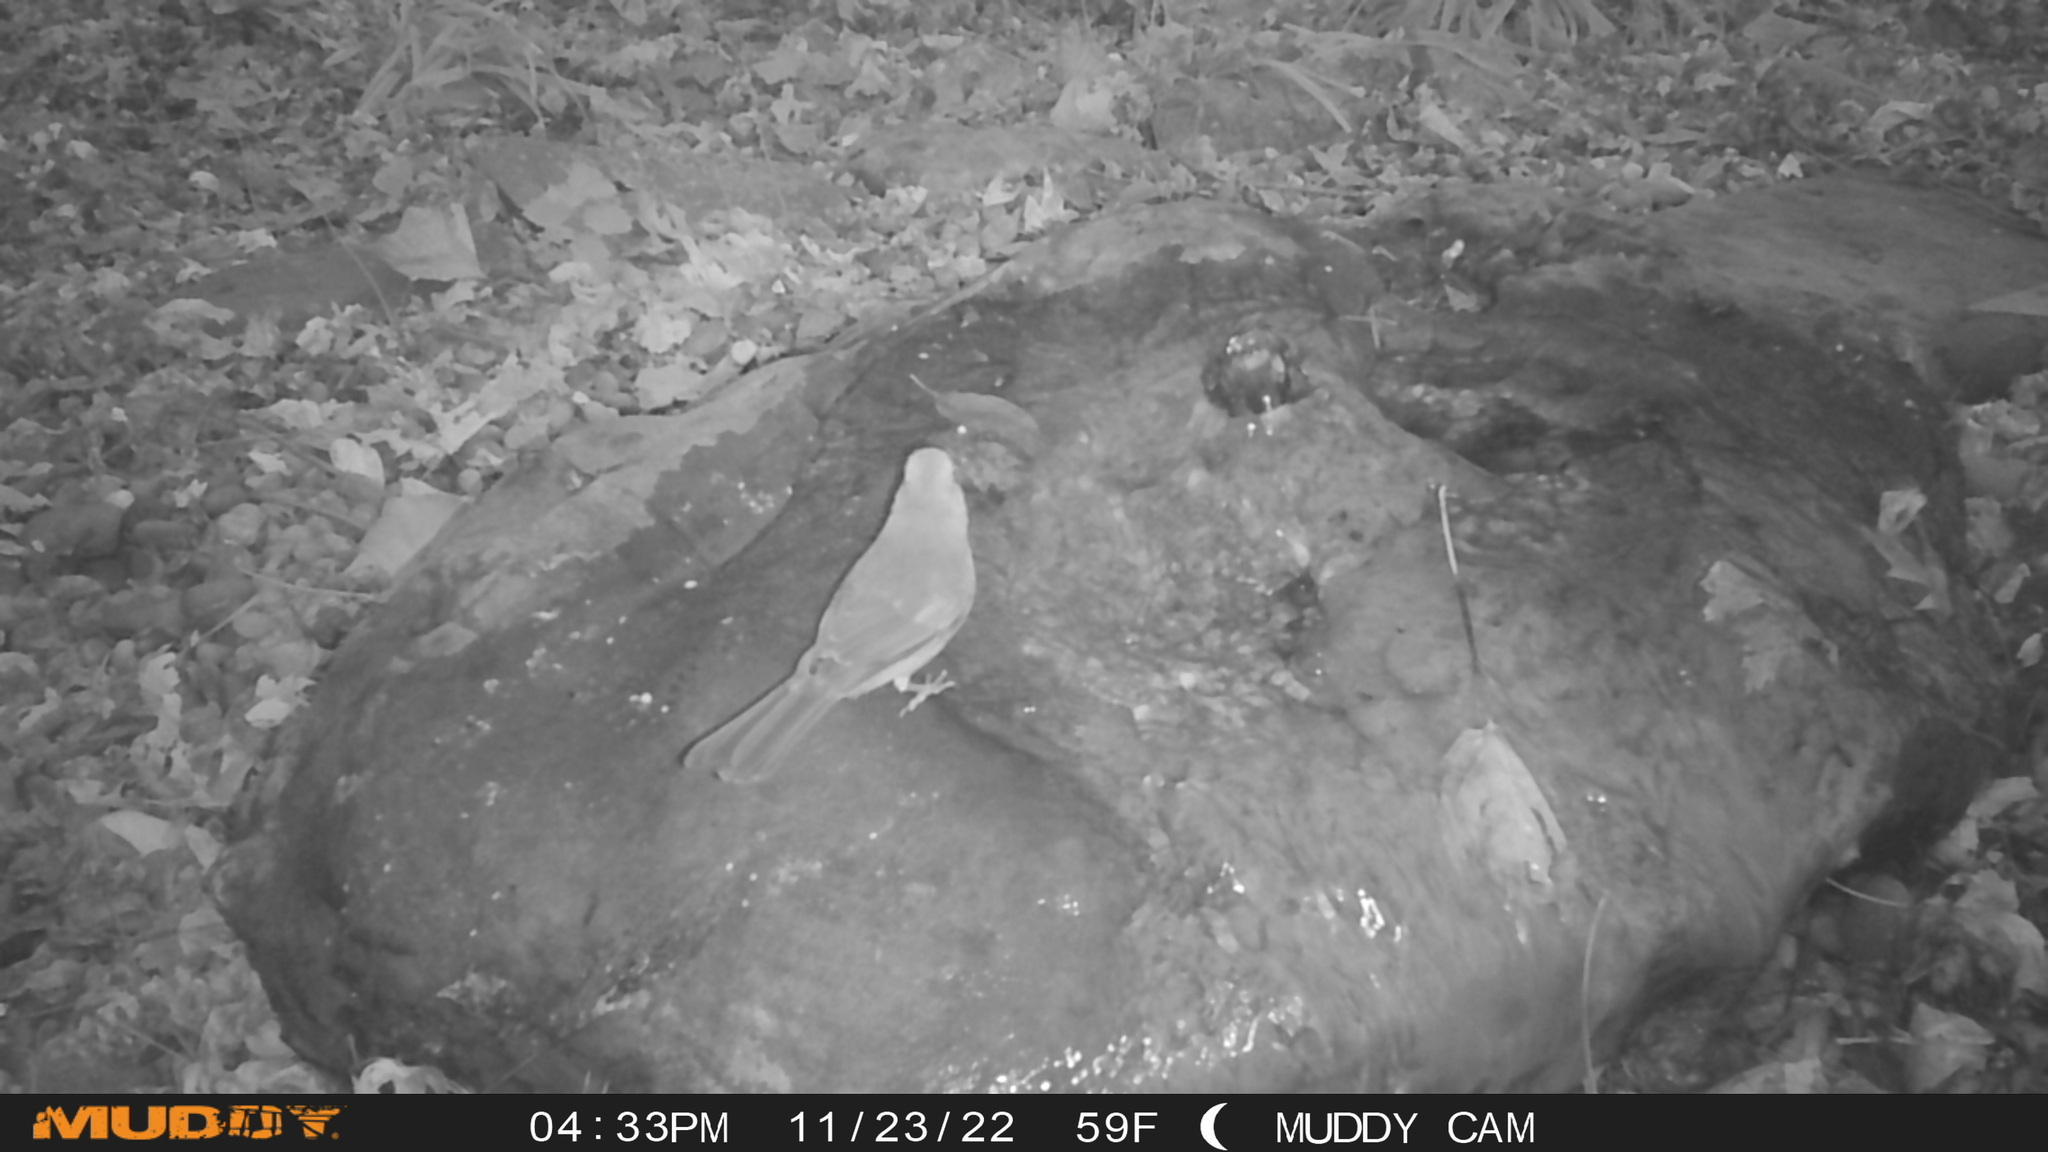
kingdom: Animalia
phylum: Chordata
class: Aves
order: Passeriformes
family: Cardinalidae
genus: Cardinalis
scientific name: Cardinalis cardinalis
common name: Northern cardinal
